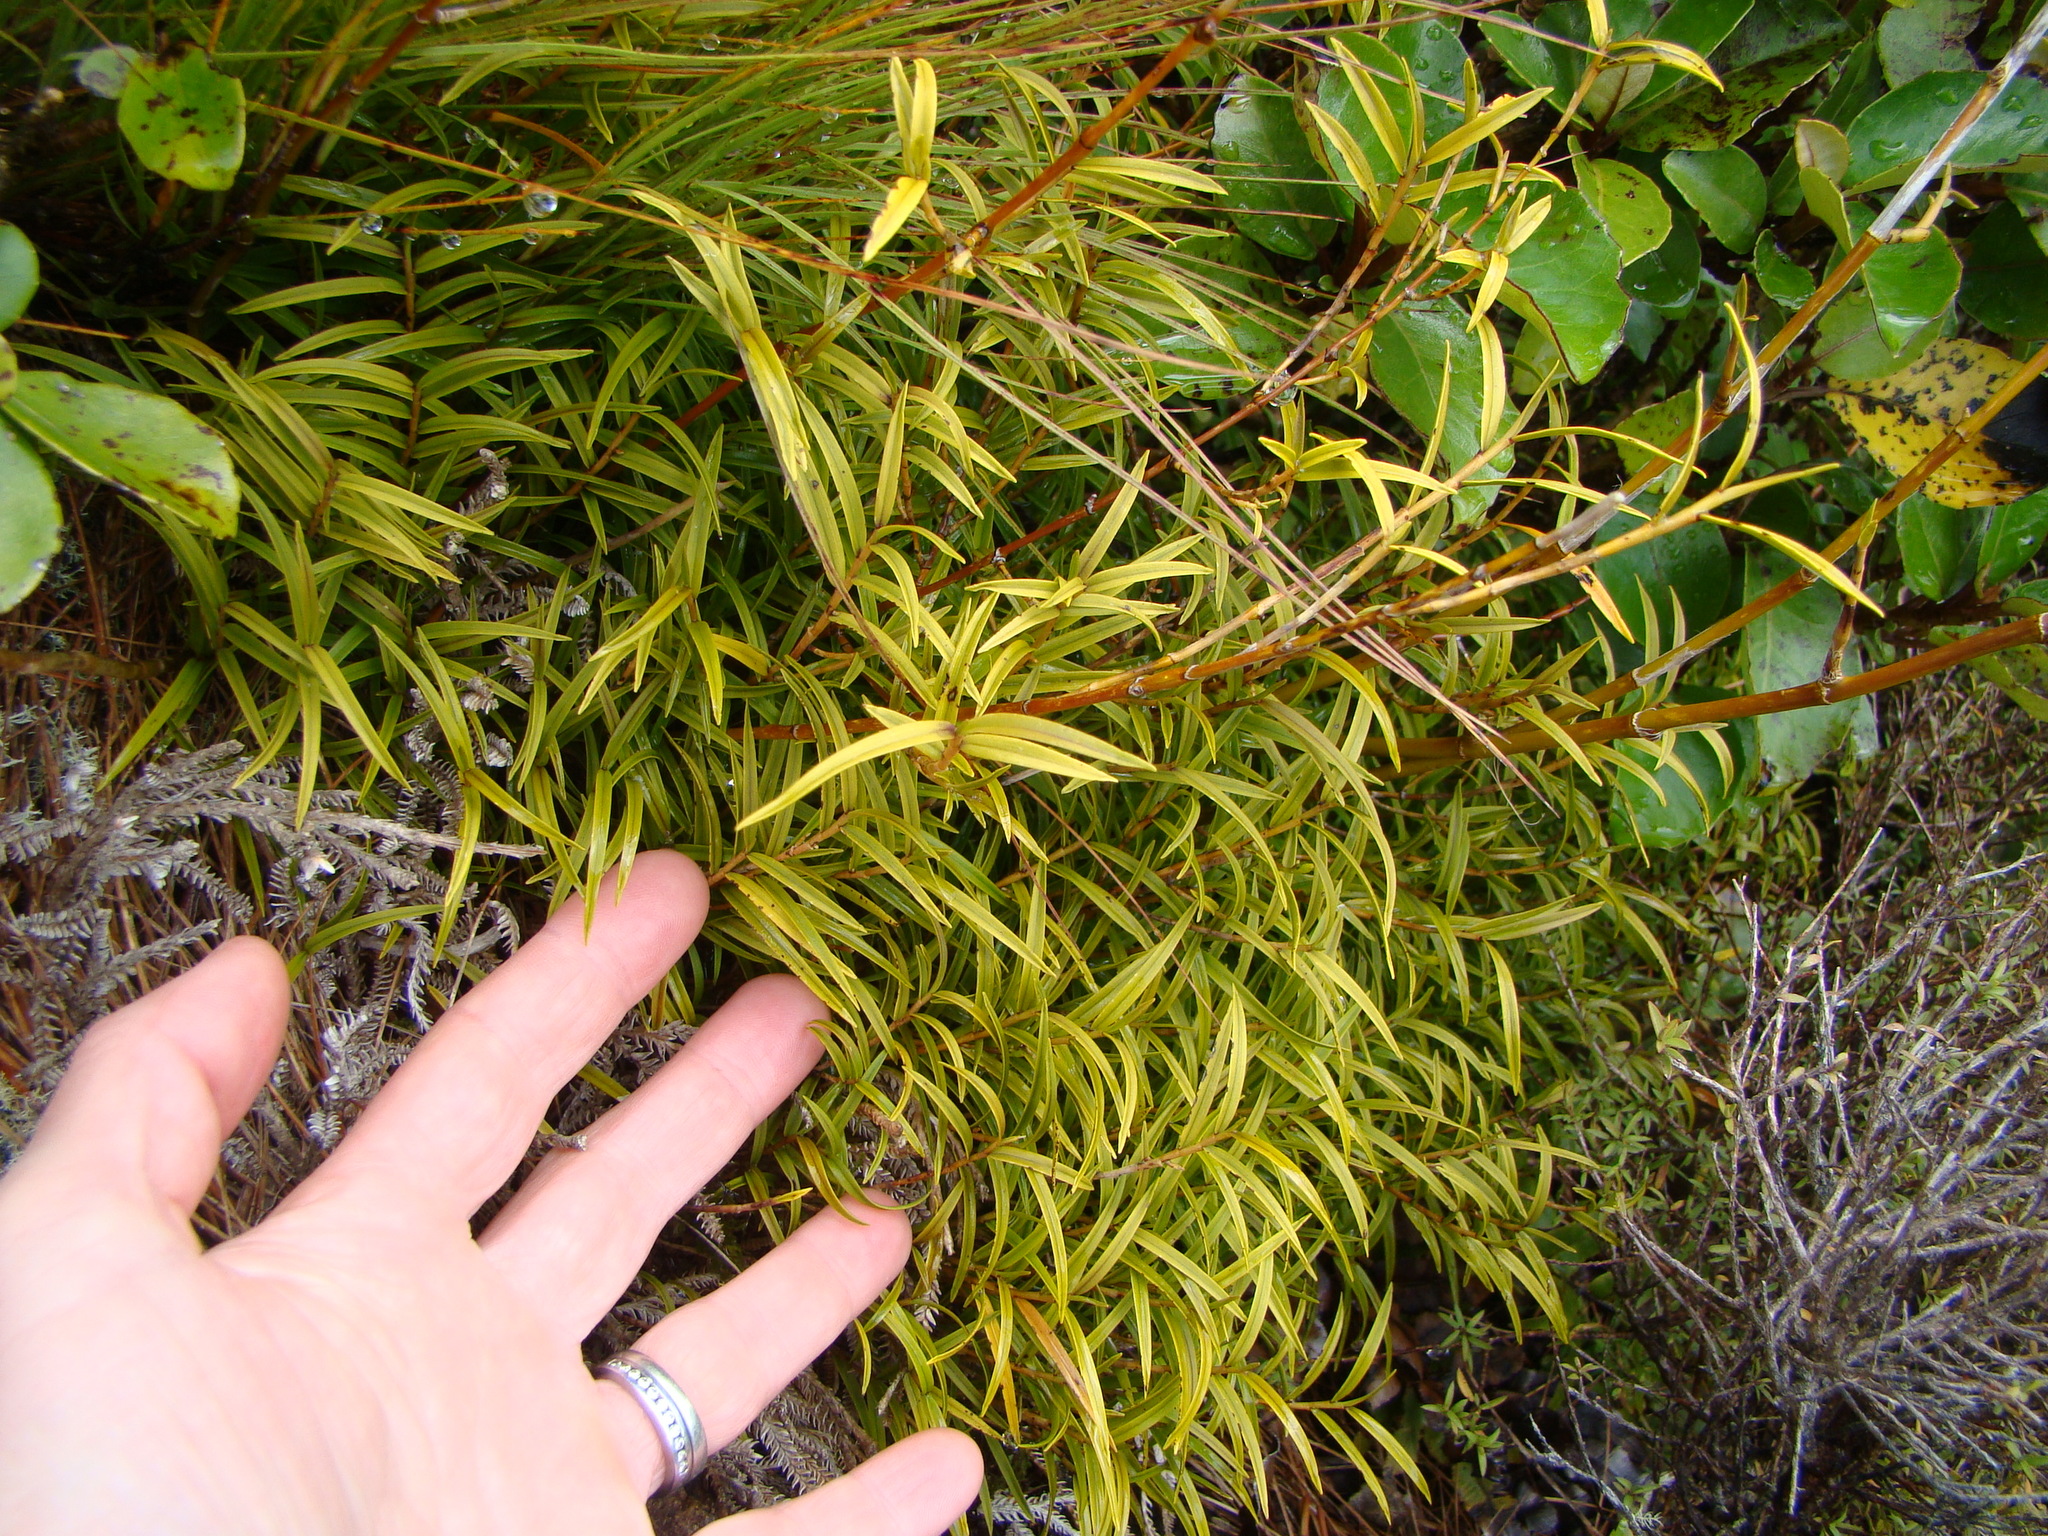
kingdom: Plantae
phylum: Tracheophyta
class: Liliopsida
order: Asparagales
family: Orchidaceae
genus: Dendrobium
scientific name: Dendrobium cunninghamii
